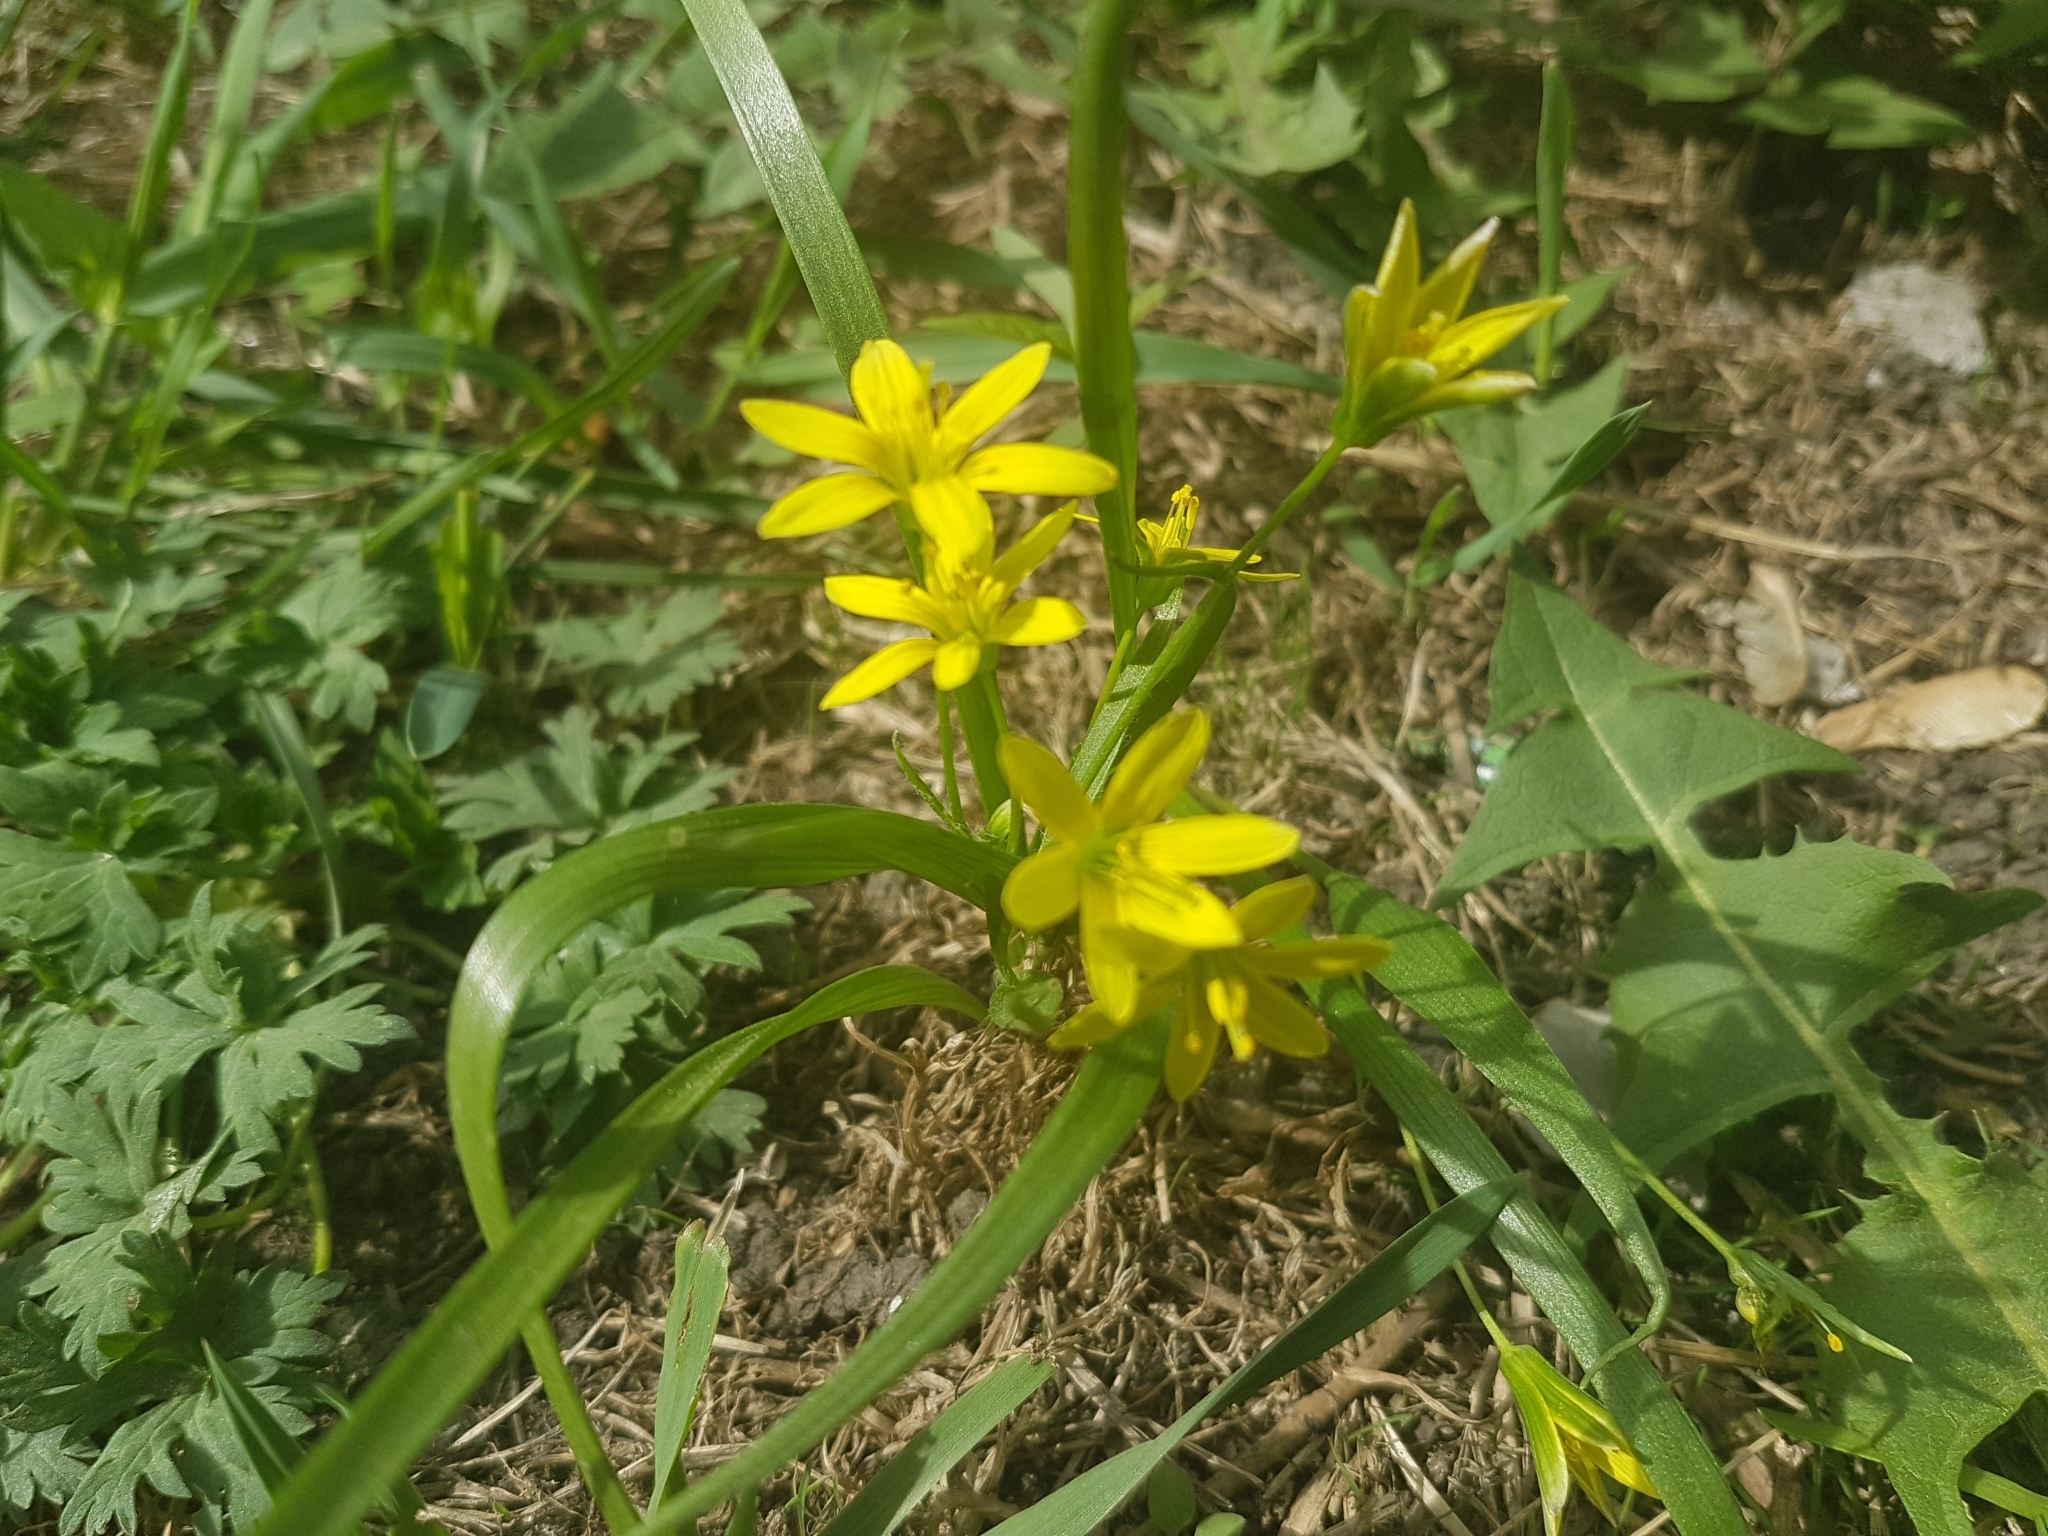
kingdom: Plantae
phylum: Tracheophyta
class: Liliopsida
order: Liliales
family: Liliaceae
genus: Gagea
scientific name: Gagea granulosa
